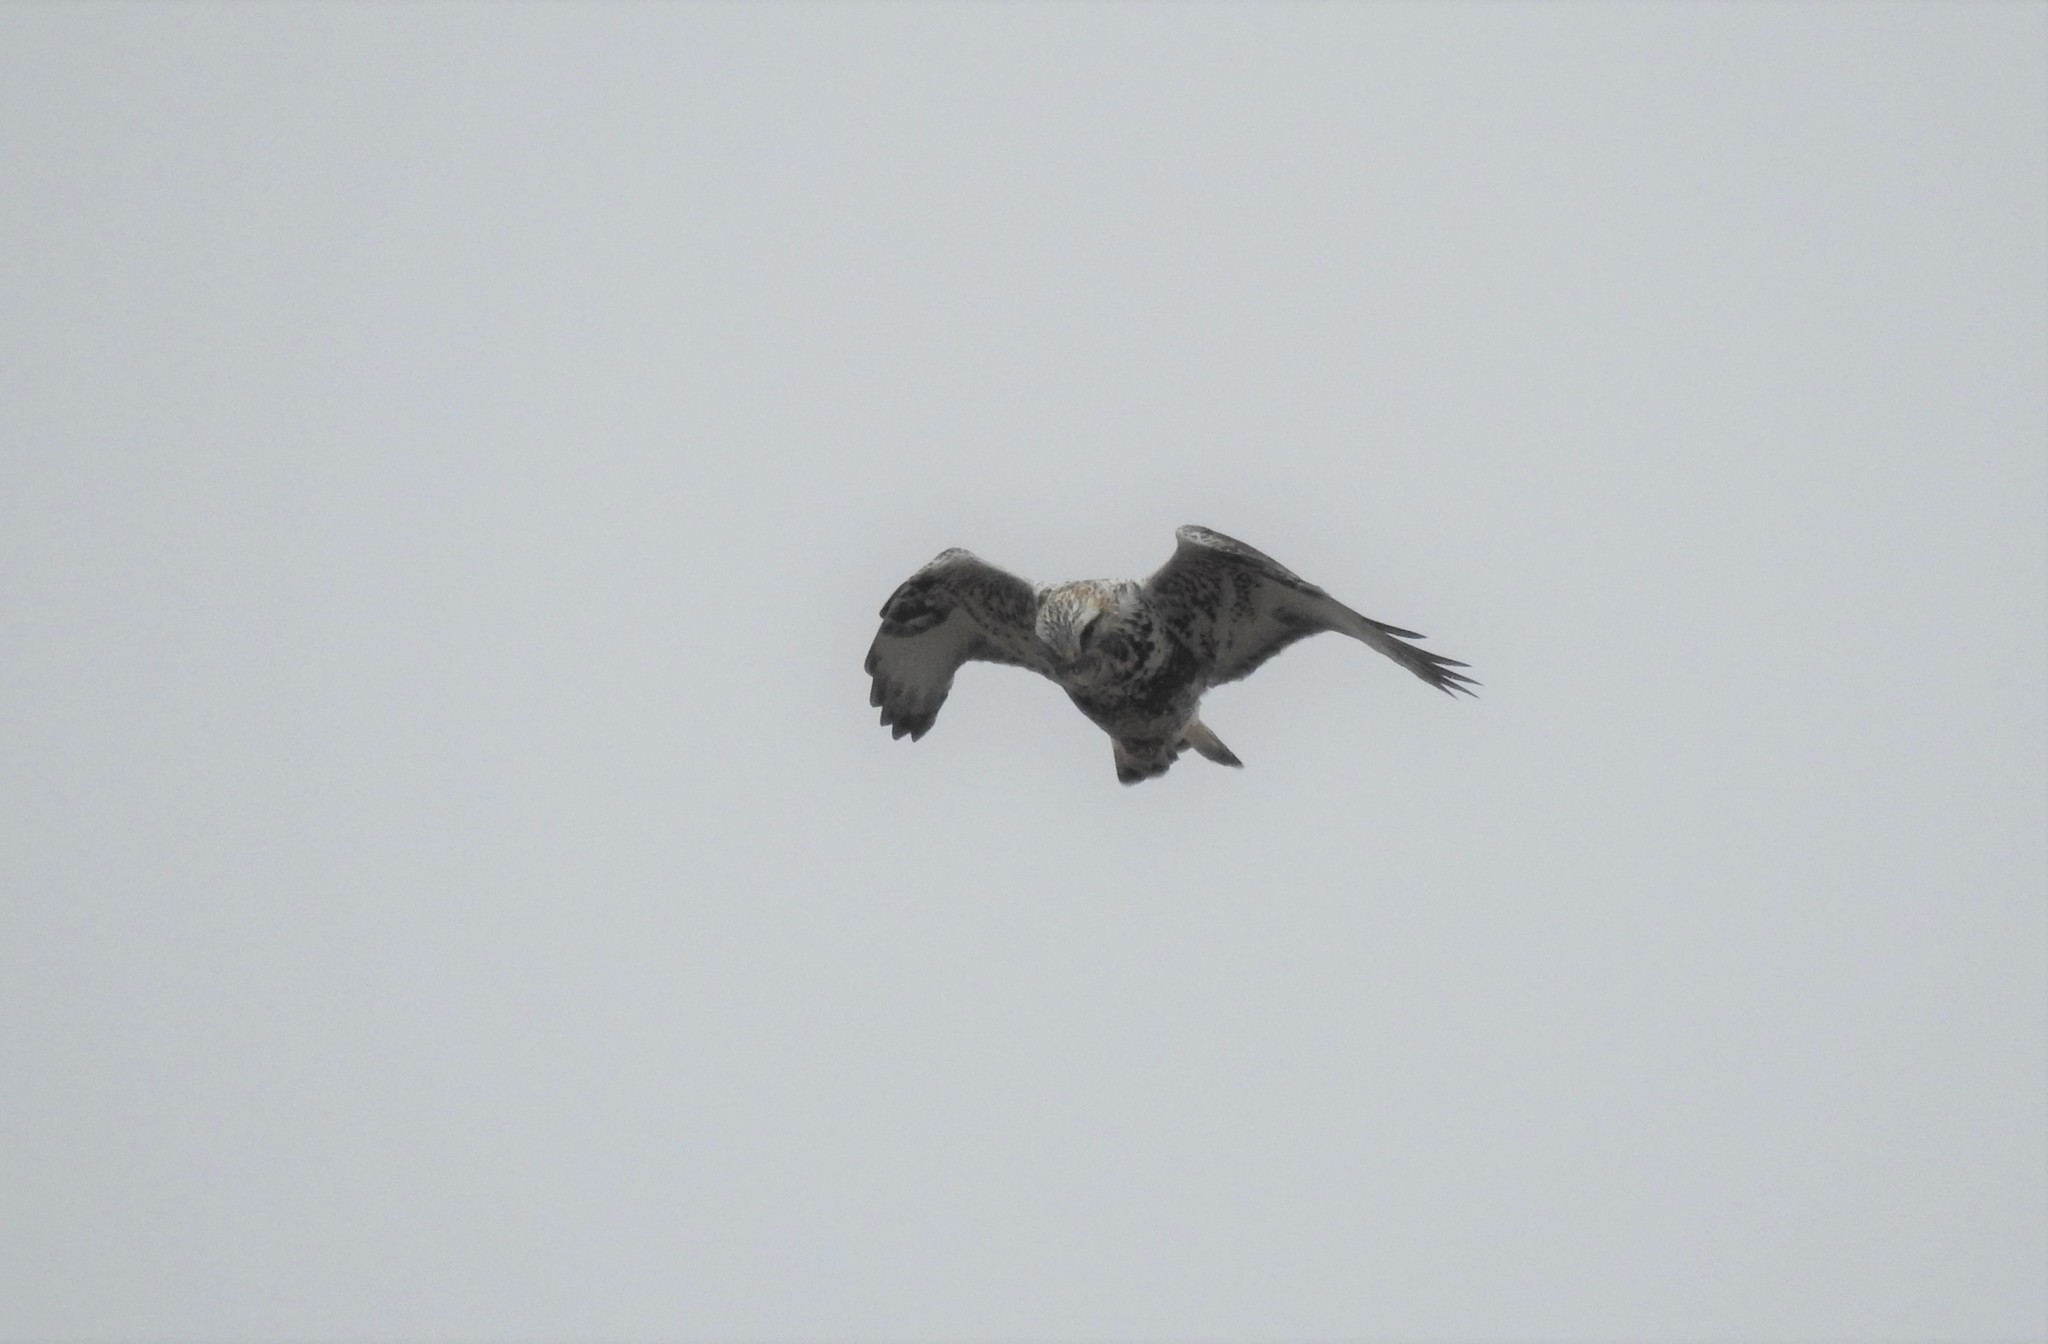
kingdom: Animalia
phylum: Chordata
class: Aves
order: Accipitriformes
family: Accipitridae
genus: Buteo
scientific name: Buteo lagopus
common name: Rough-legged buzzard
